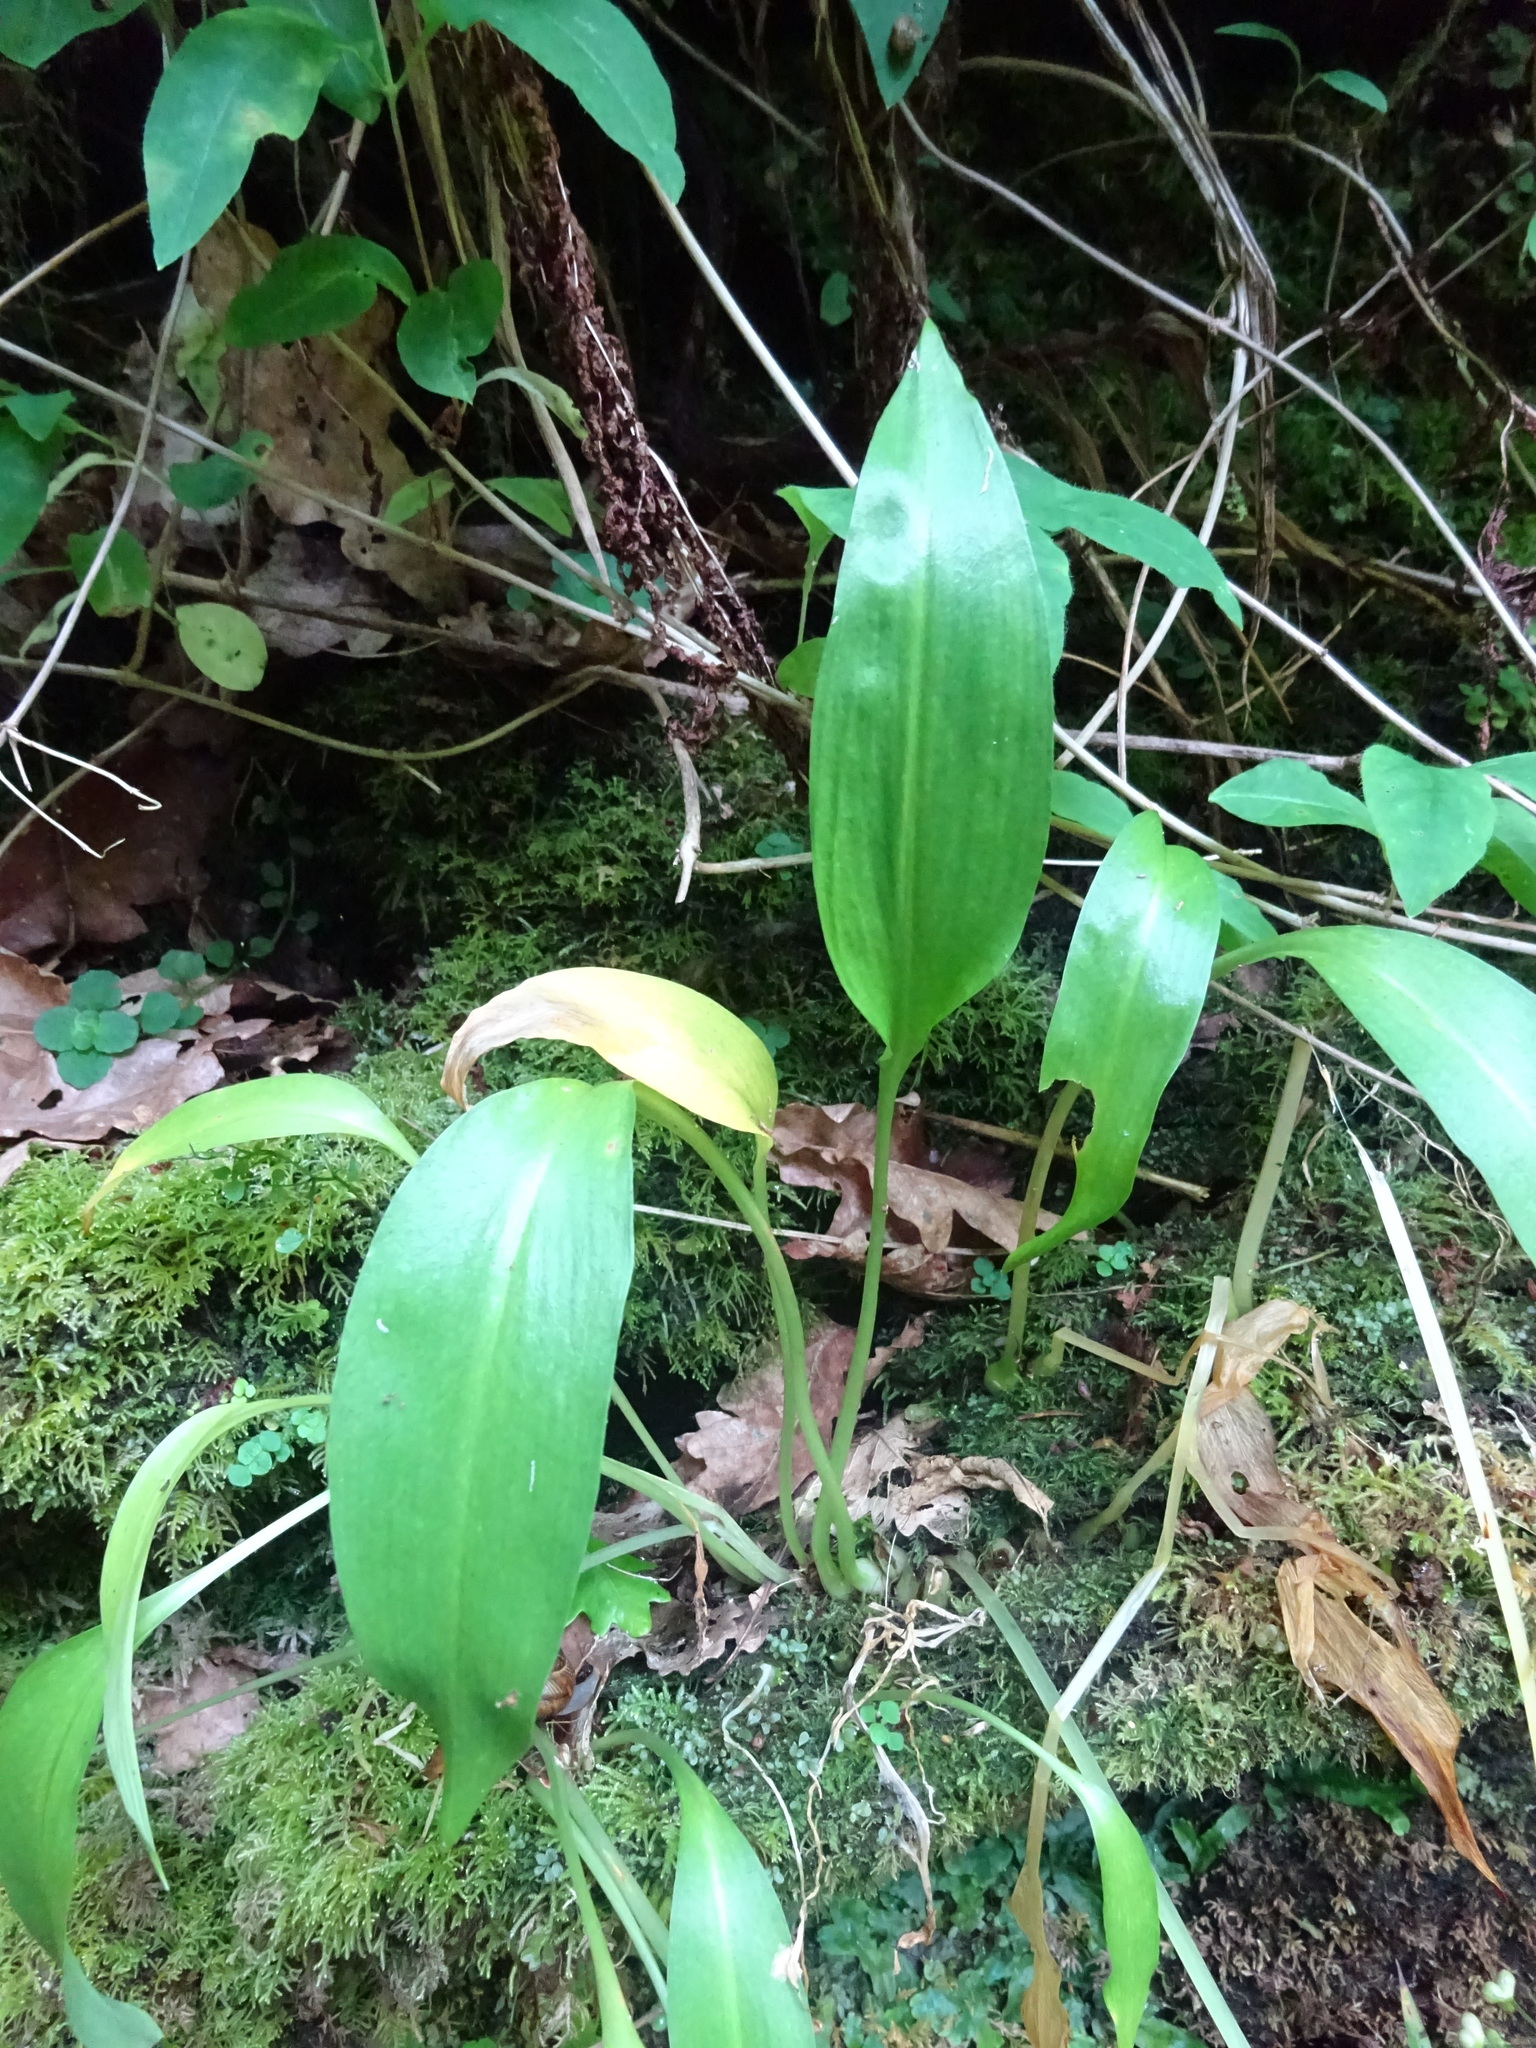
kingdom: Plantae
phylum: Tracheophyta
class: Liliopsida
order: Asparagales
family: Amaryllidaceae
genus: Allium
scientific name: Allium ursinum
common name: Ramsons
